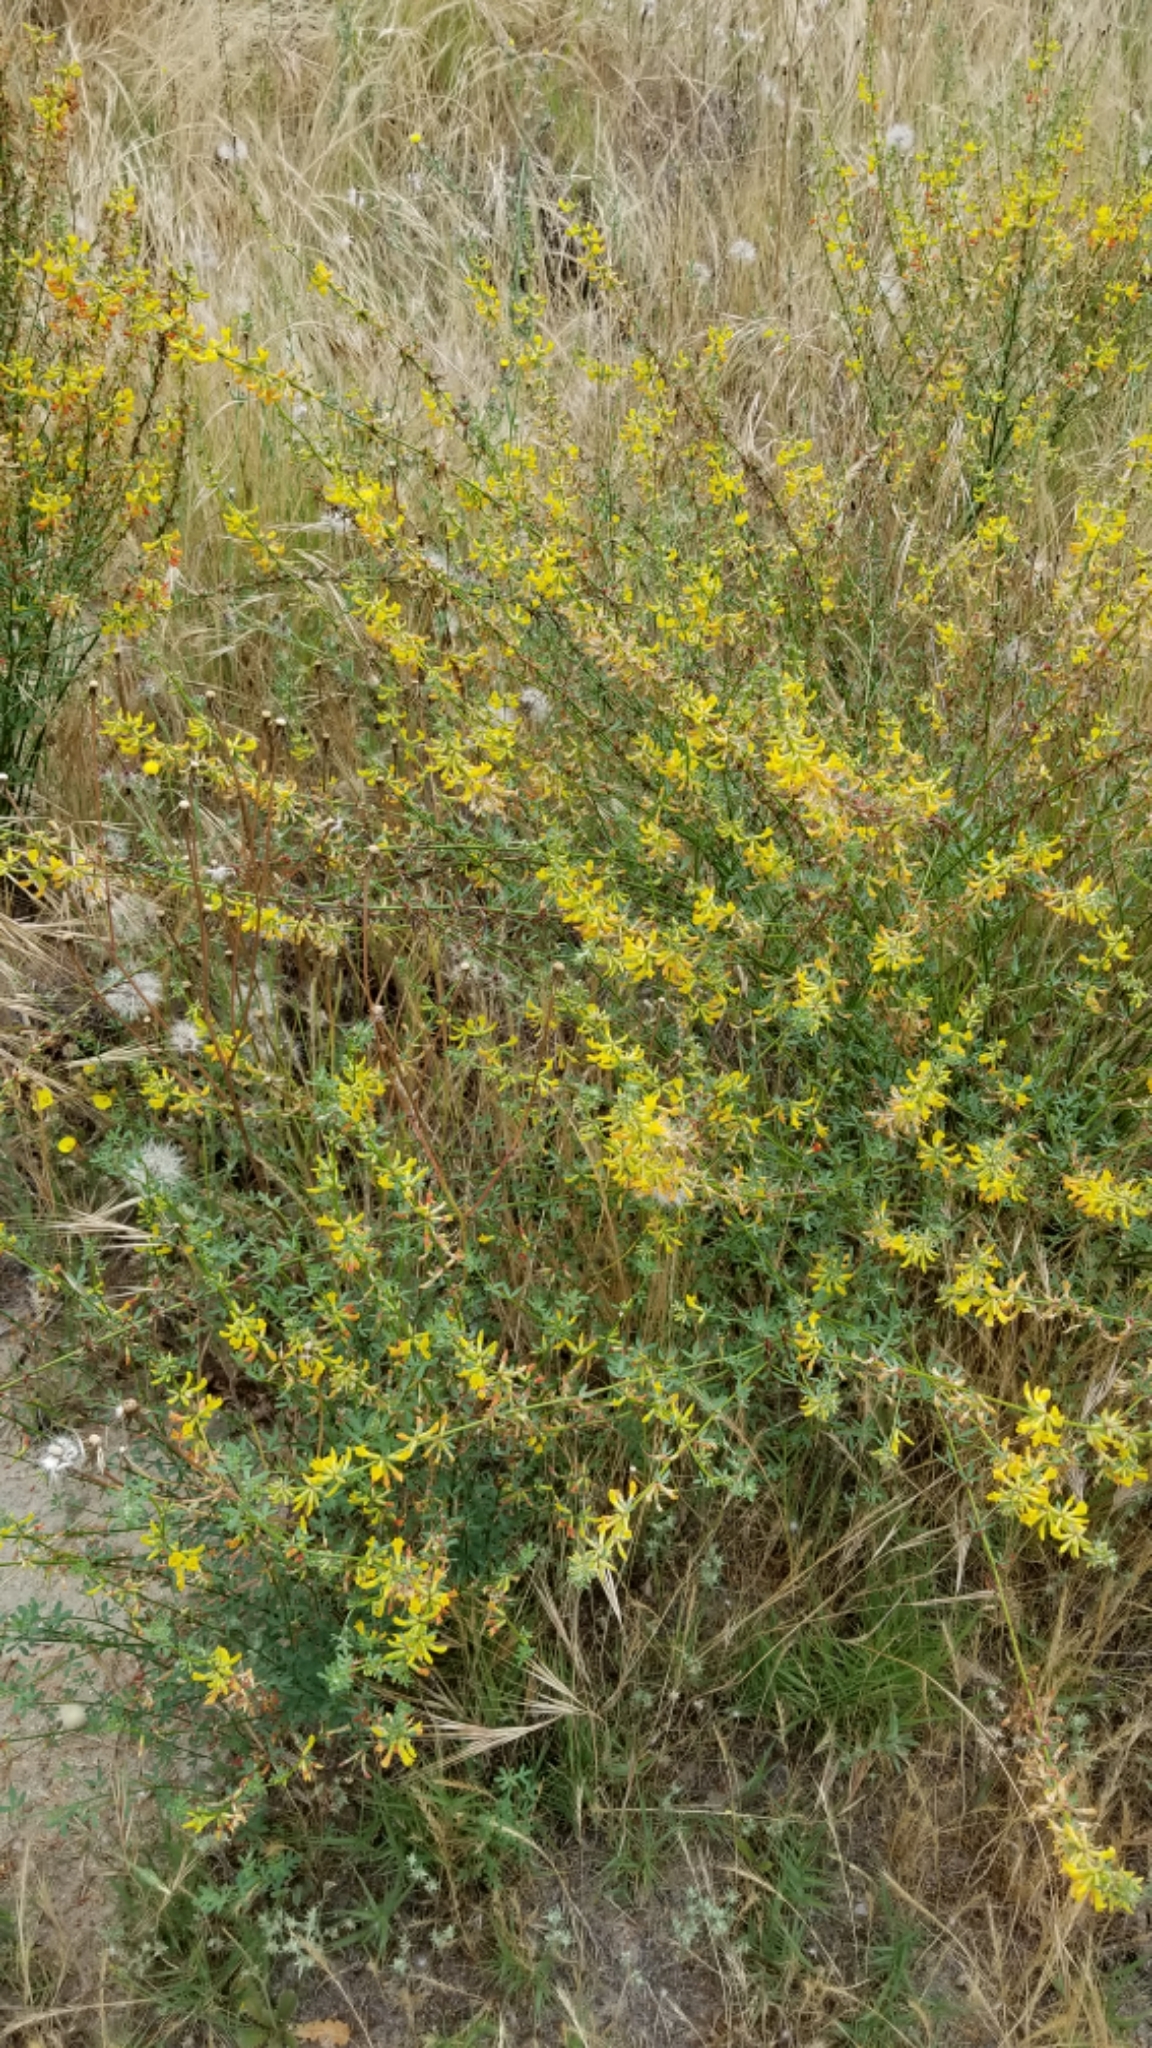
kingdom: Plantae
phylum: Tracheophyta
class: Magnoliopsida
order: Fabales
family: Fabaceae
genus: Acmispon
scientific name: Acmispon glaber
